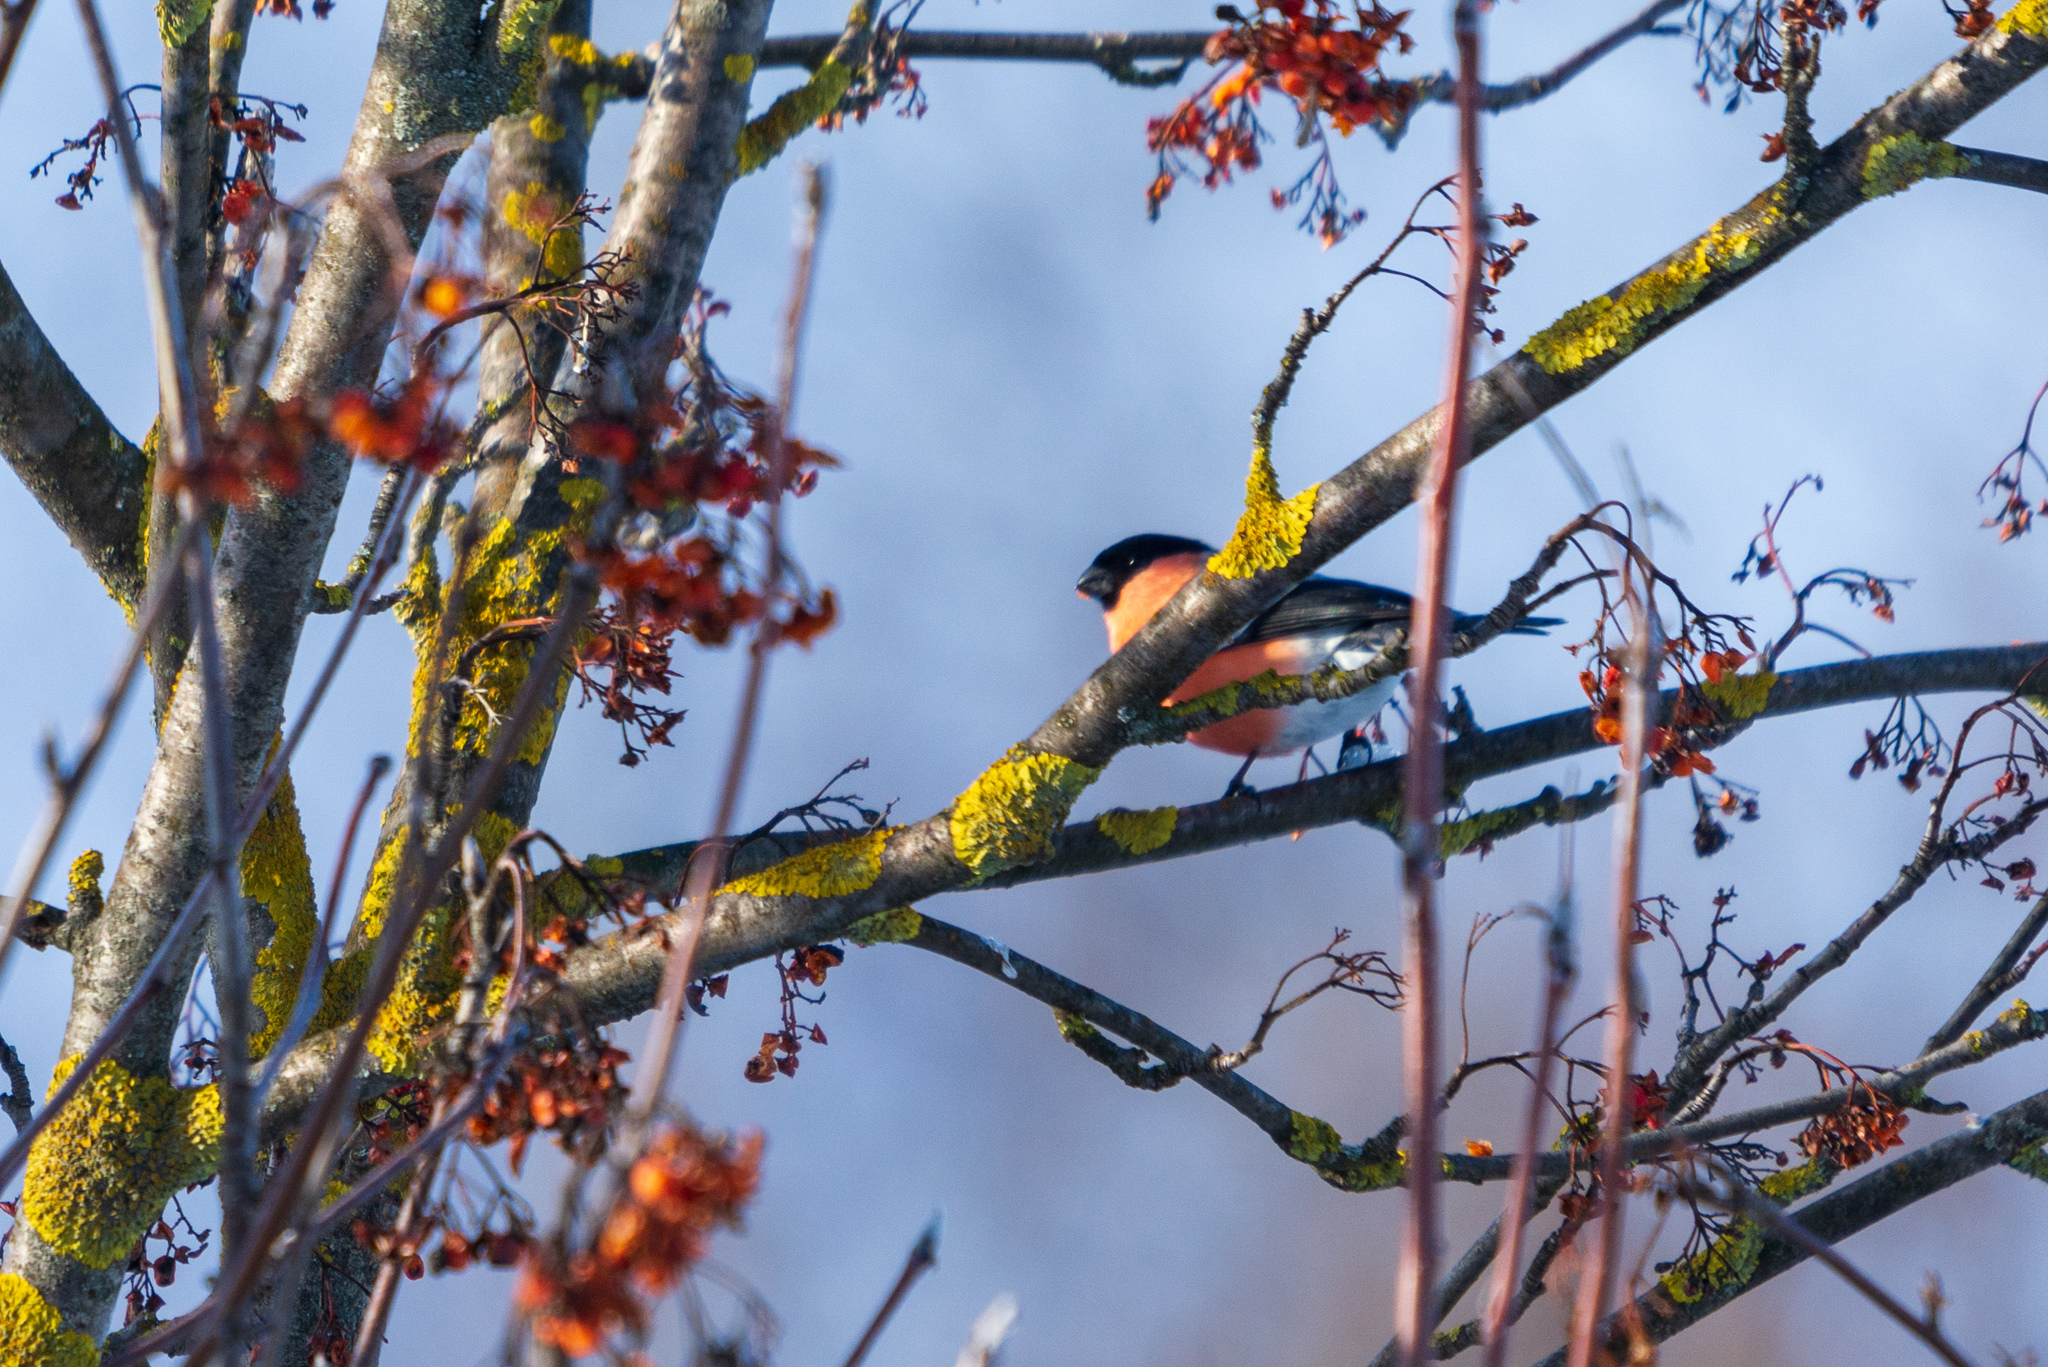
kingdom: Animalia
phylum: Chordata
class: Aves
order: Passeriformes
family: Fringillidae
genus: Pyrrhula
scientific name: Pyrrhula pyrrhula
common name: Eurasian bullfinch
